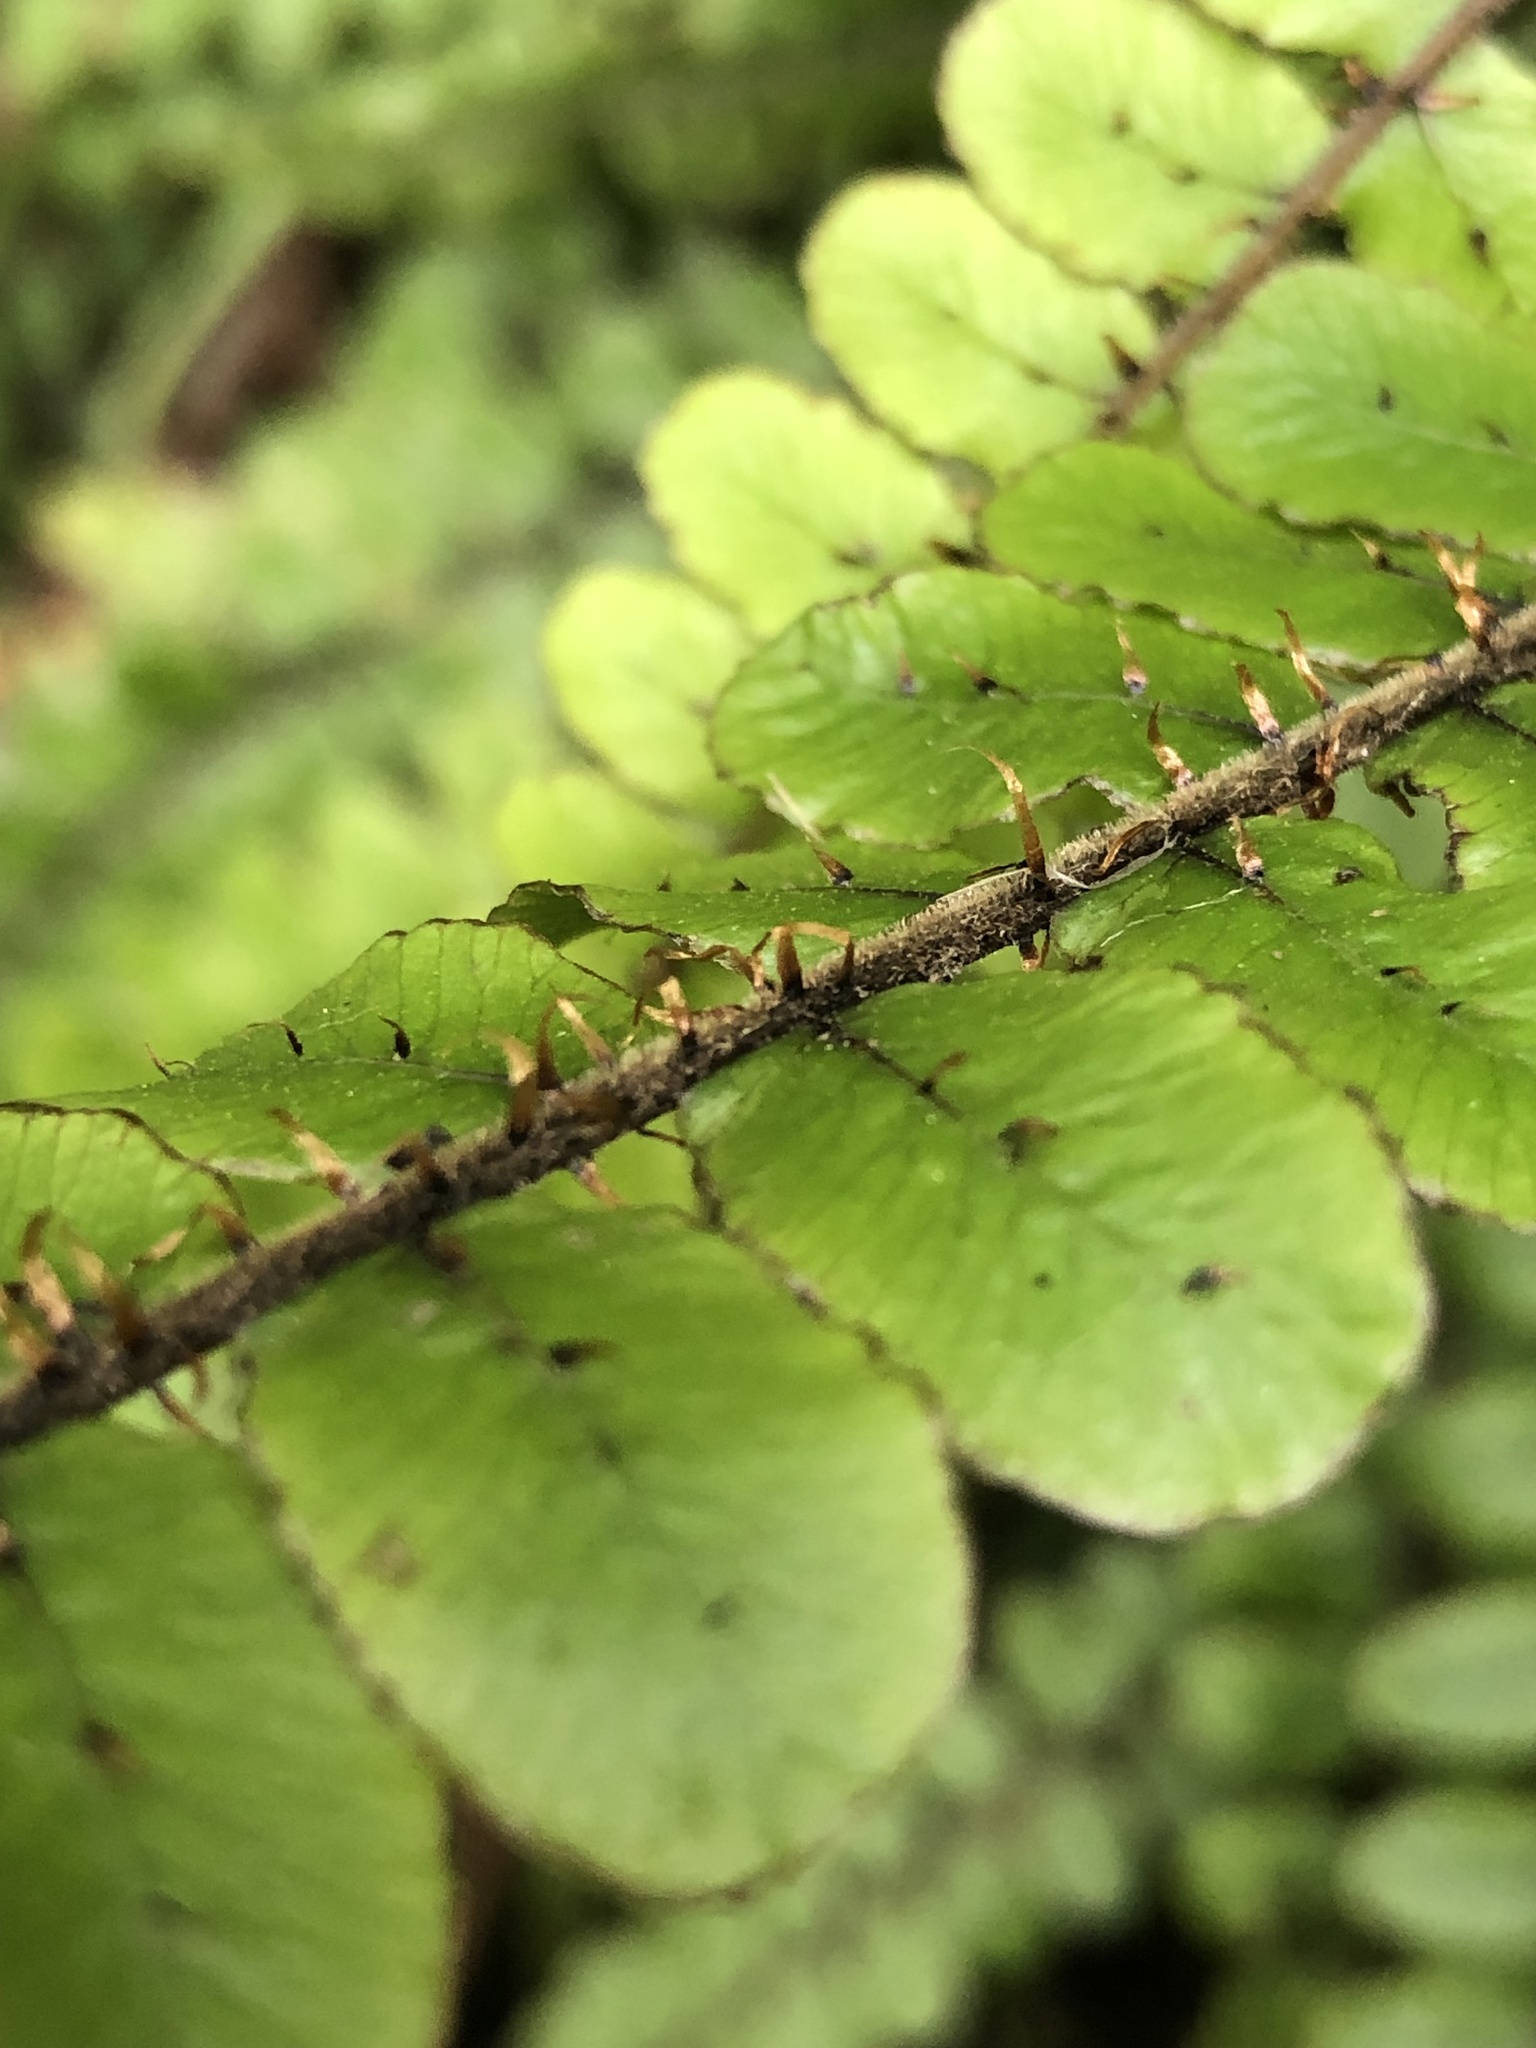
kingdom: Plantae
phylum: Tracheophyta
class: Polypodiopsida
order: Polypodiales
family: Blechnaceae
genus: Cranfillia
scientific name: Cranfillia fluviatilis
